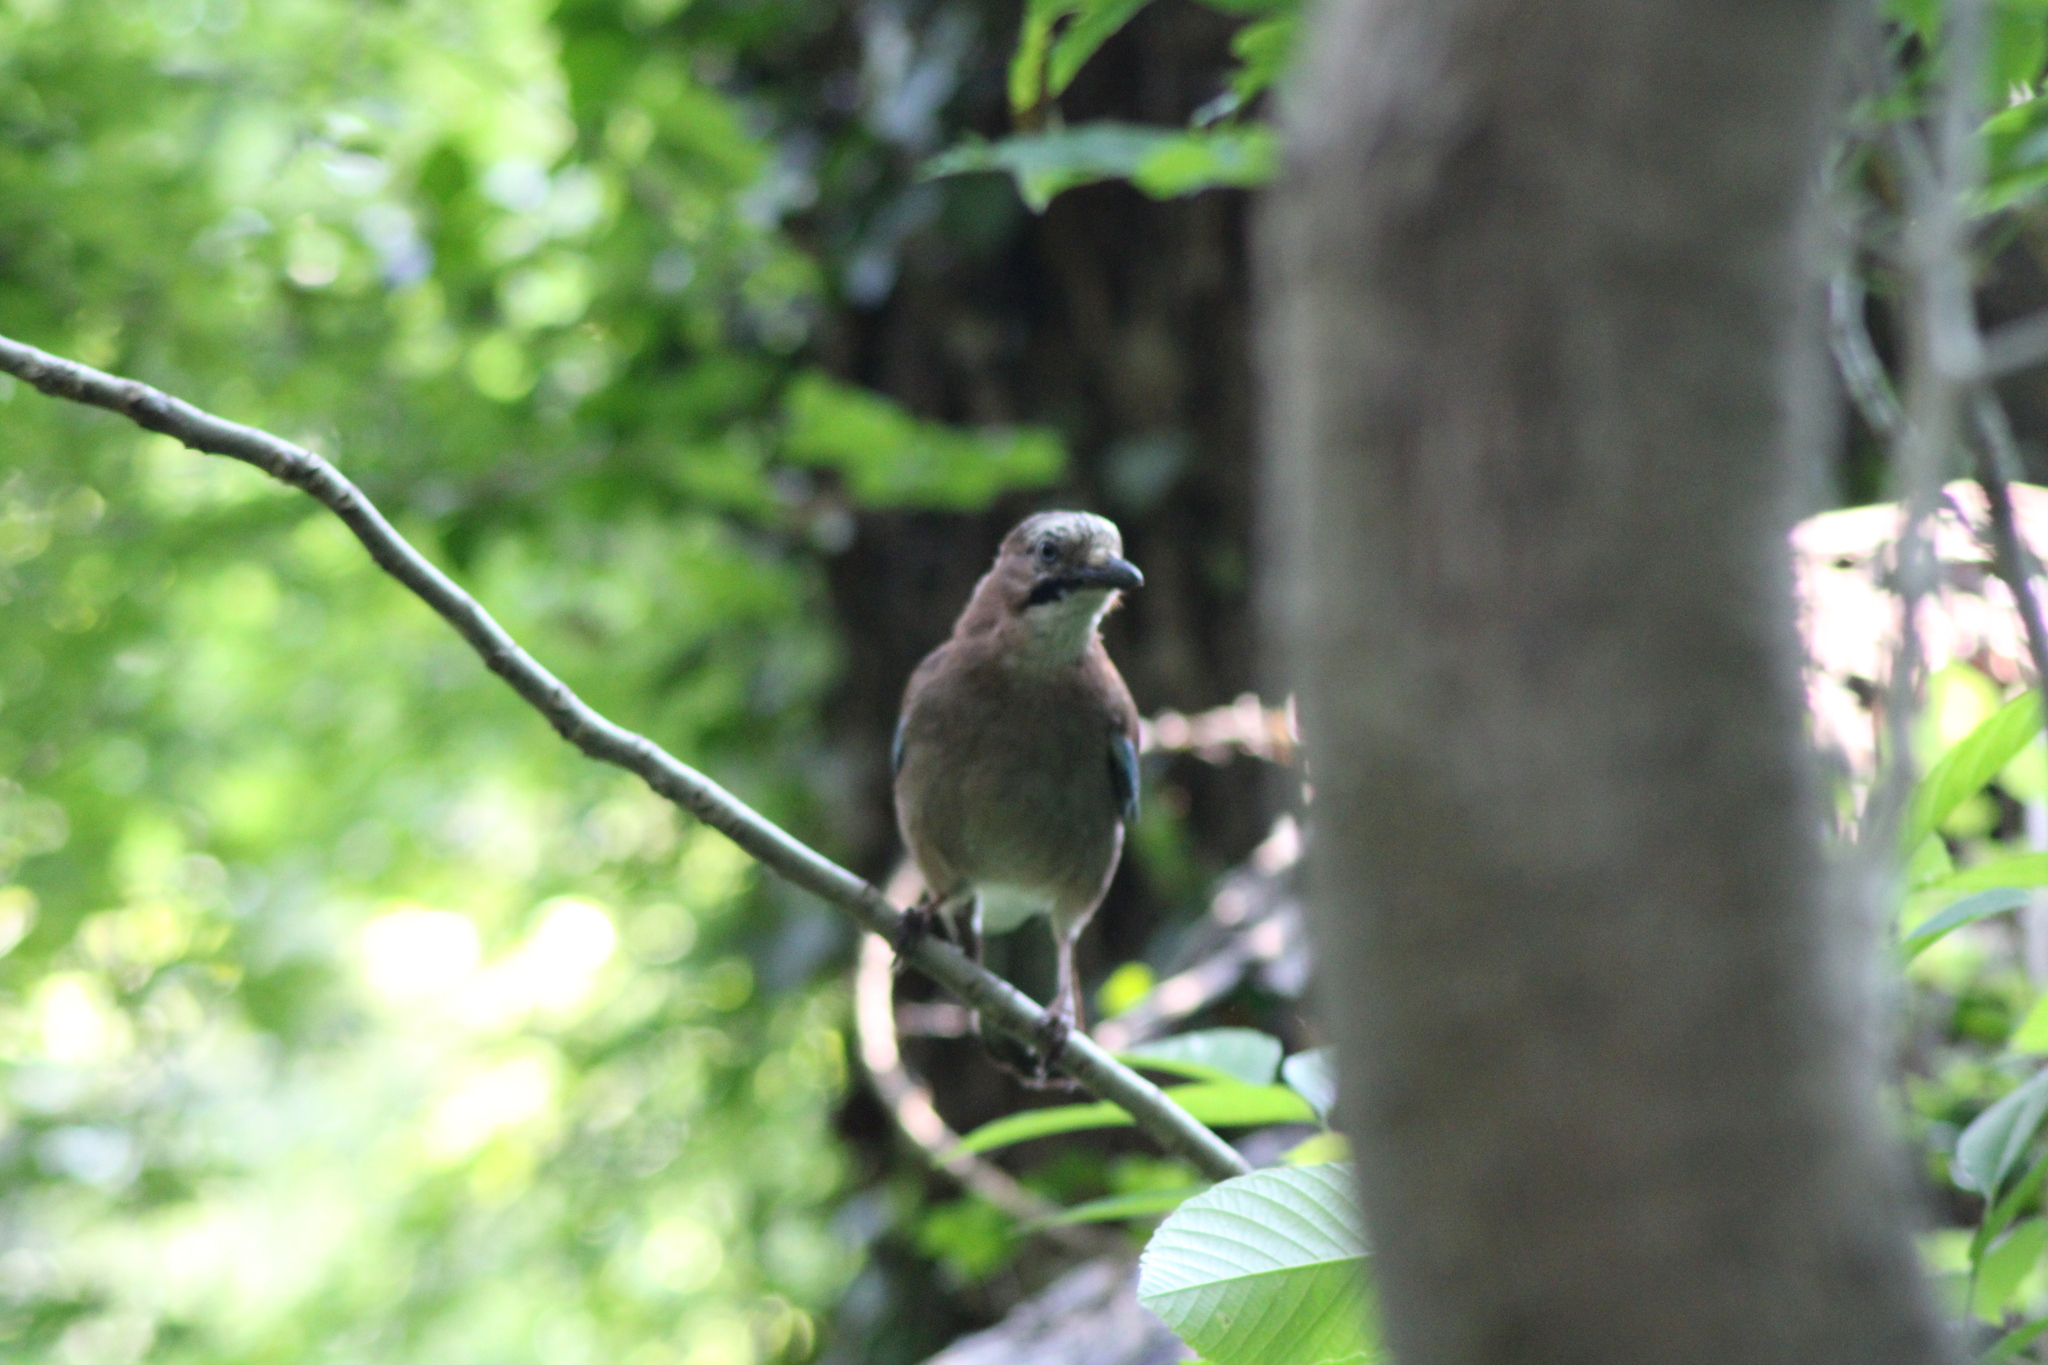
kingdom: Animalia
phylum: Chordata
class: Aves
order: Passeriformes
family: Corvidae
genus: Garrulus
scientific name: Garrulus glandarius
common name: Eurasian jay
